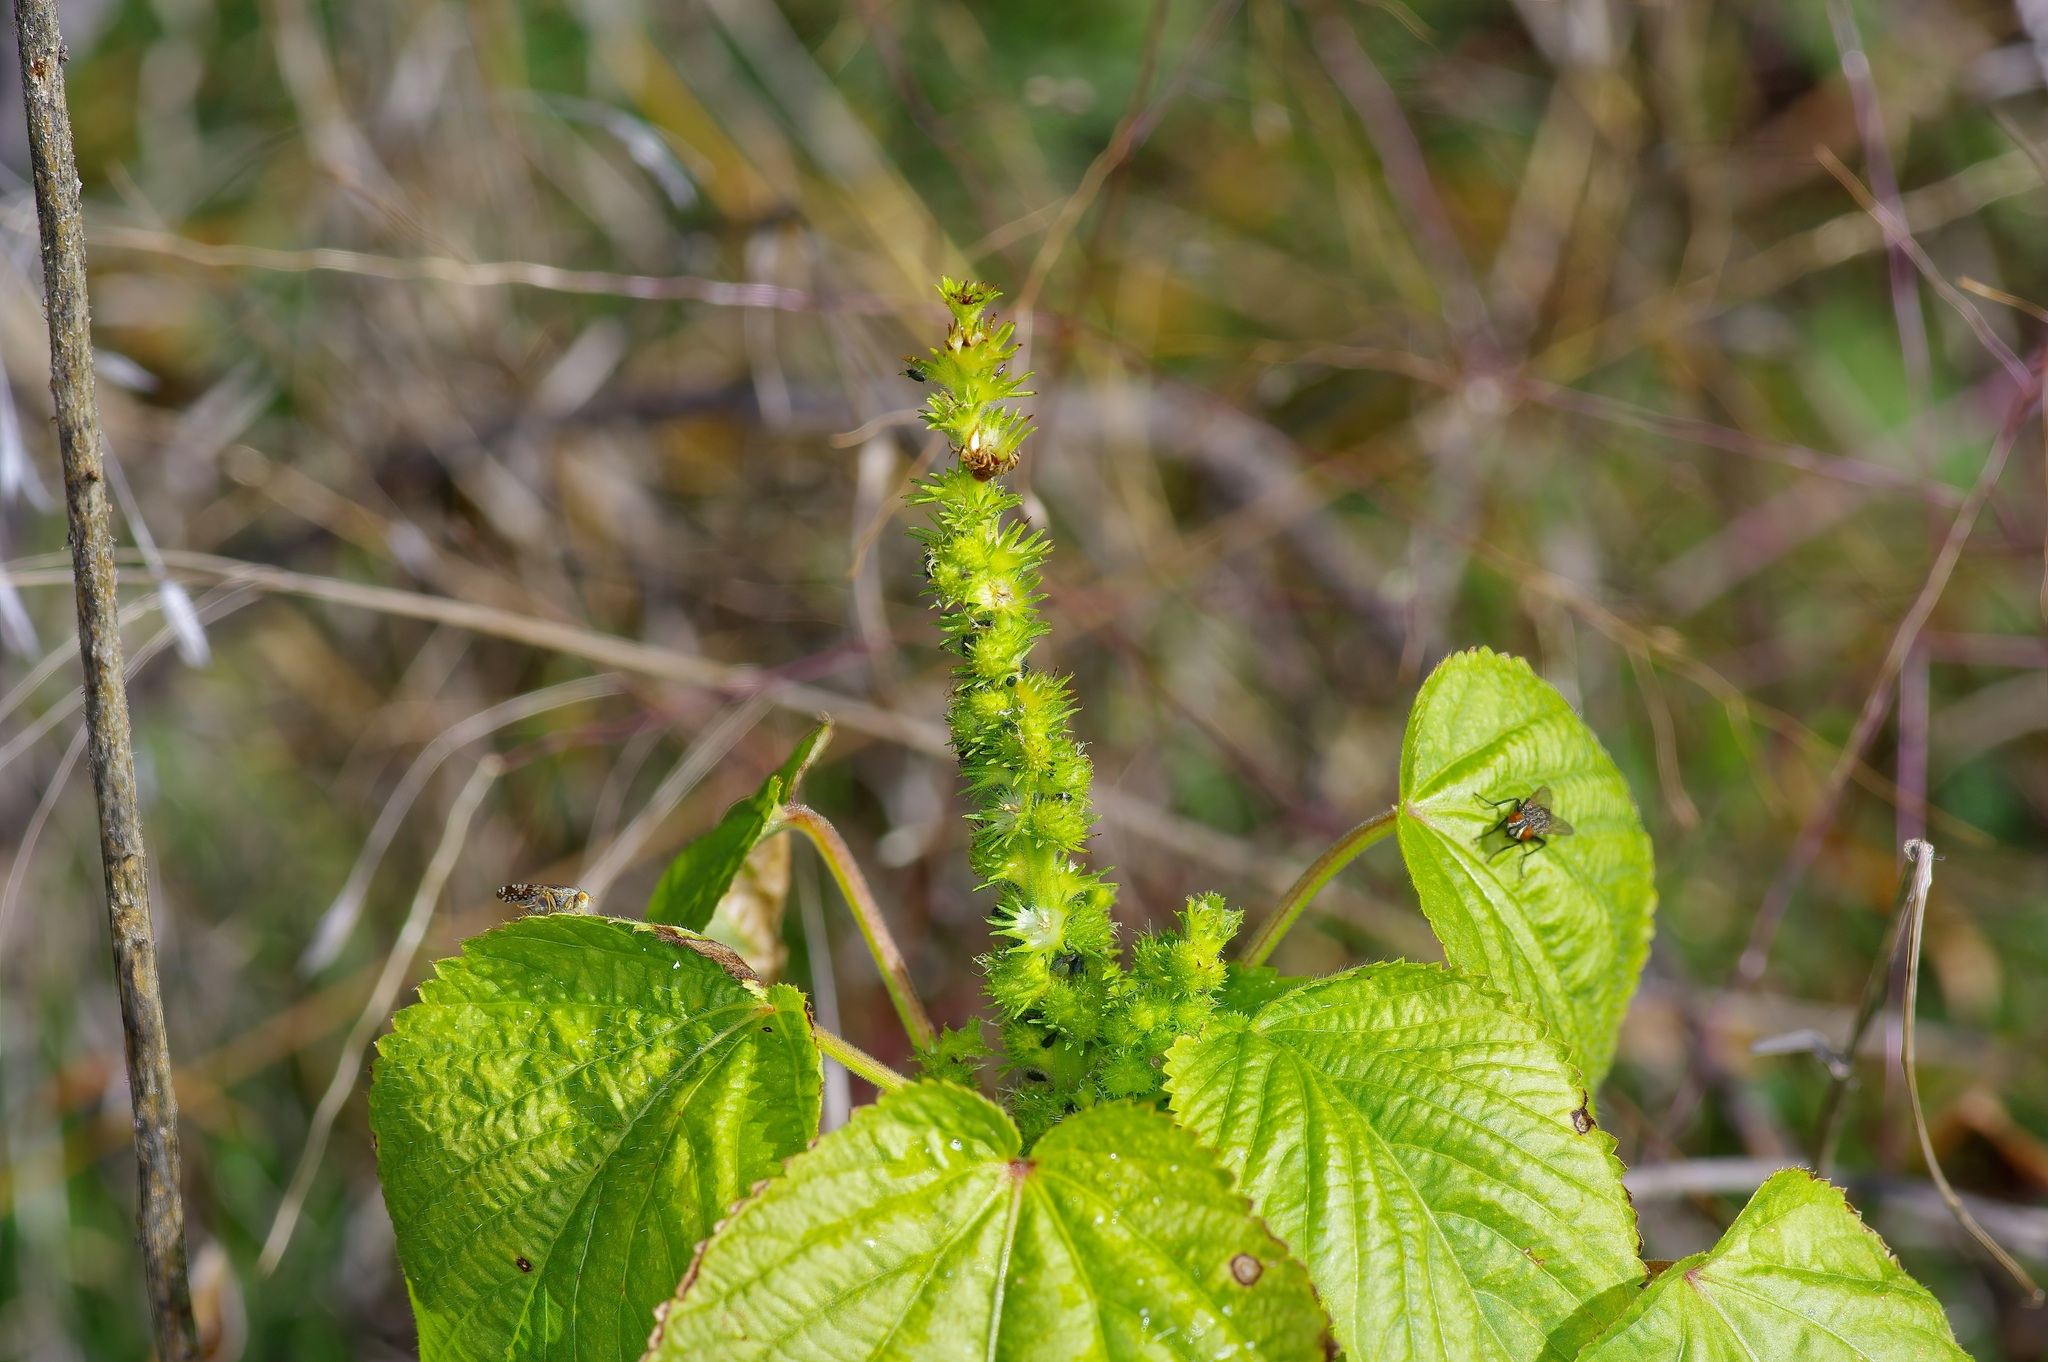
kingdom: Plantae
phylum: Tracheophyta
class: Magnoliopsida
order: Malpighiales
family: Euphorbiaceae
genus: Acalypha
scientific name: Acalypha ostryifolia
